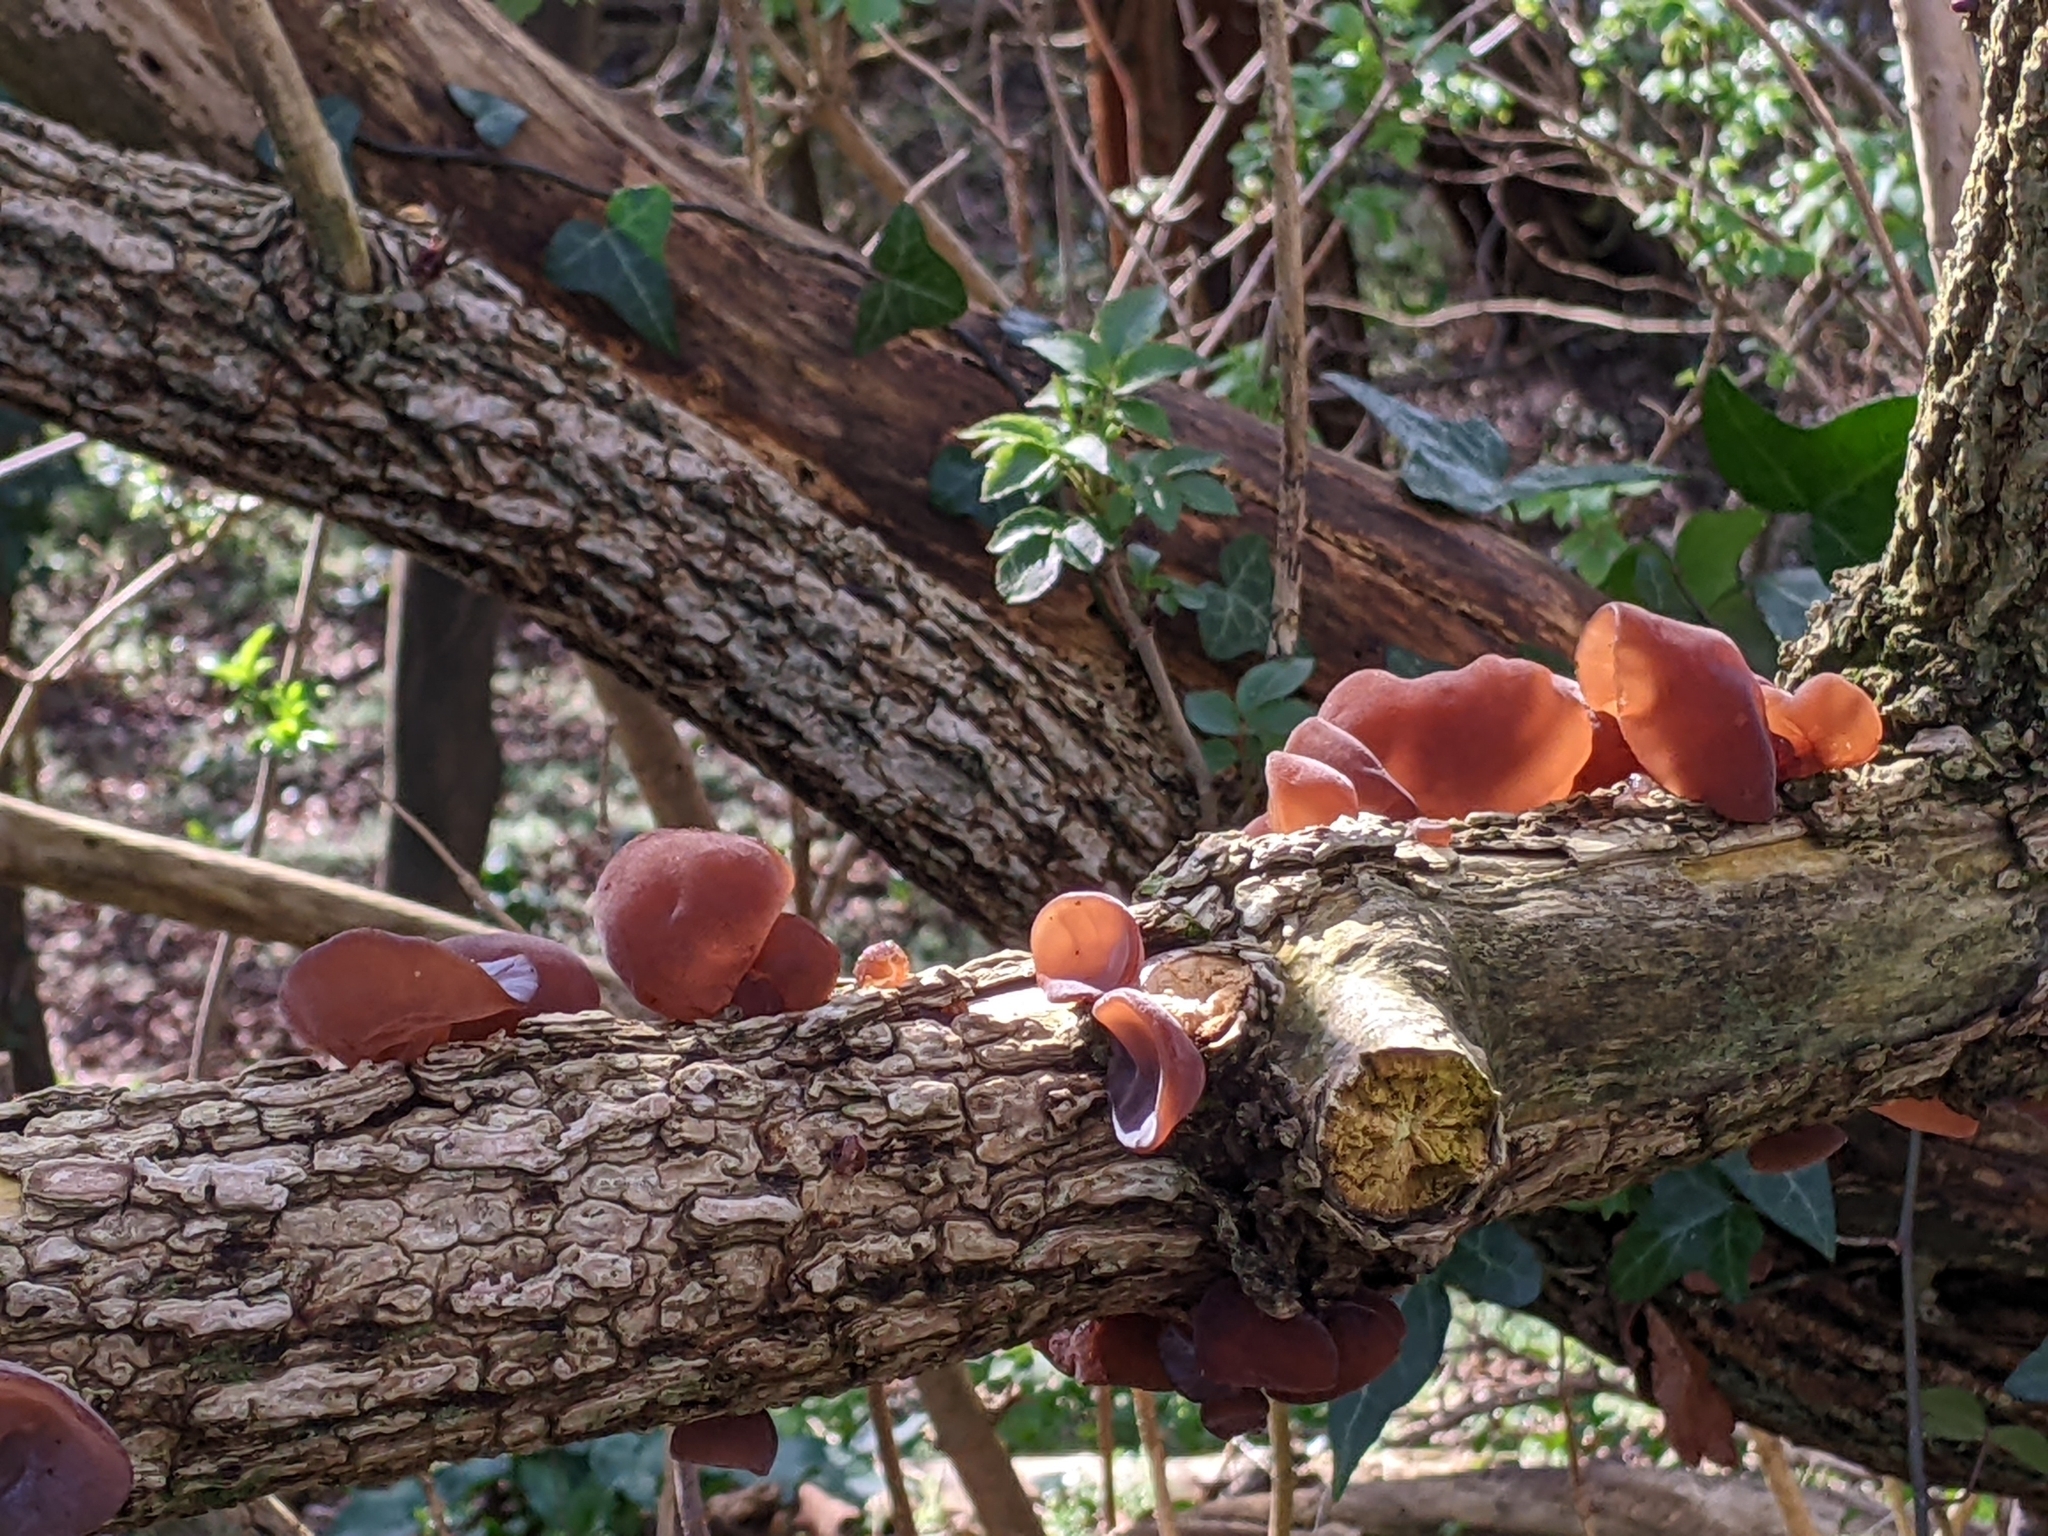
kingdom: Fungi
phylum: Basidiomycota
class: Agaricomycetes
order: Auriculariales
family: Auriculariaceae
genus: Auricularia
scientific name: Auricularia auricula-judae
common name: Jelly ear
